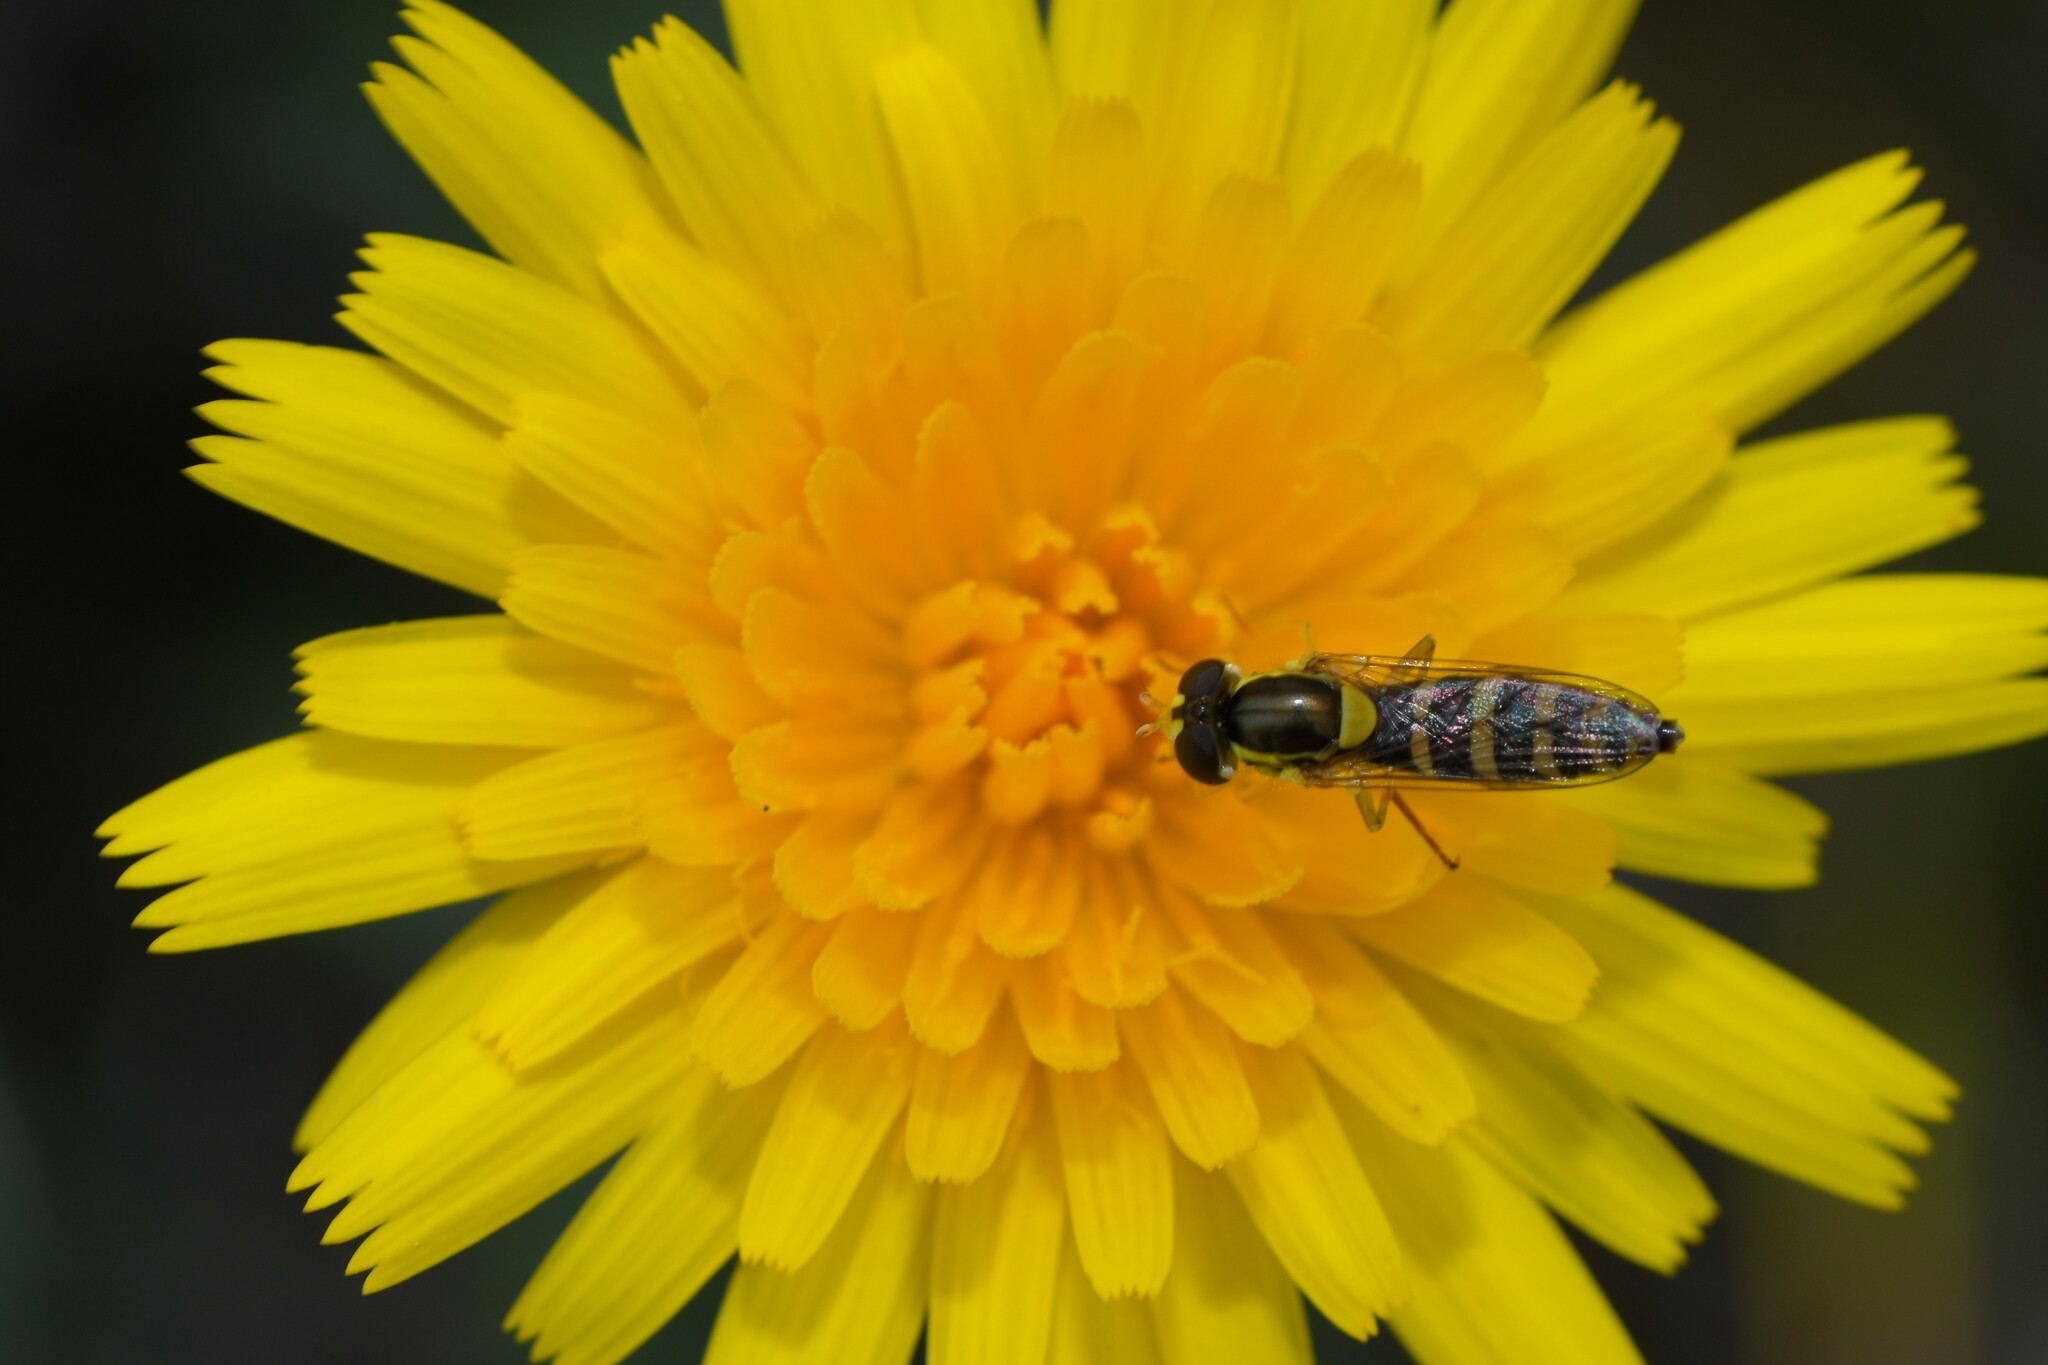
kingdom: Animalia
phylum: Arthropoda
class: Insecta
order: Diptera
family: Syrphidae
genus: Sphaerophoria
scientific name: Sphaerophoria scripta
